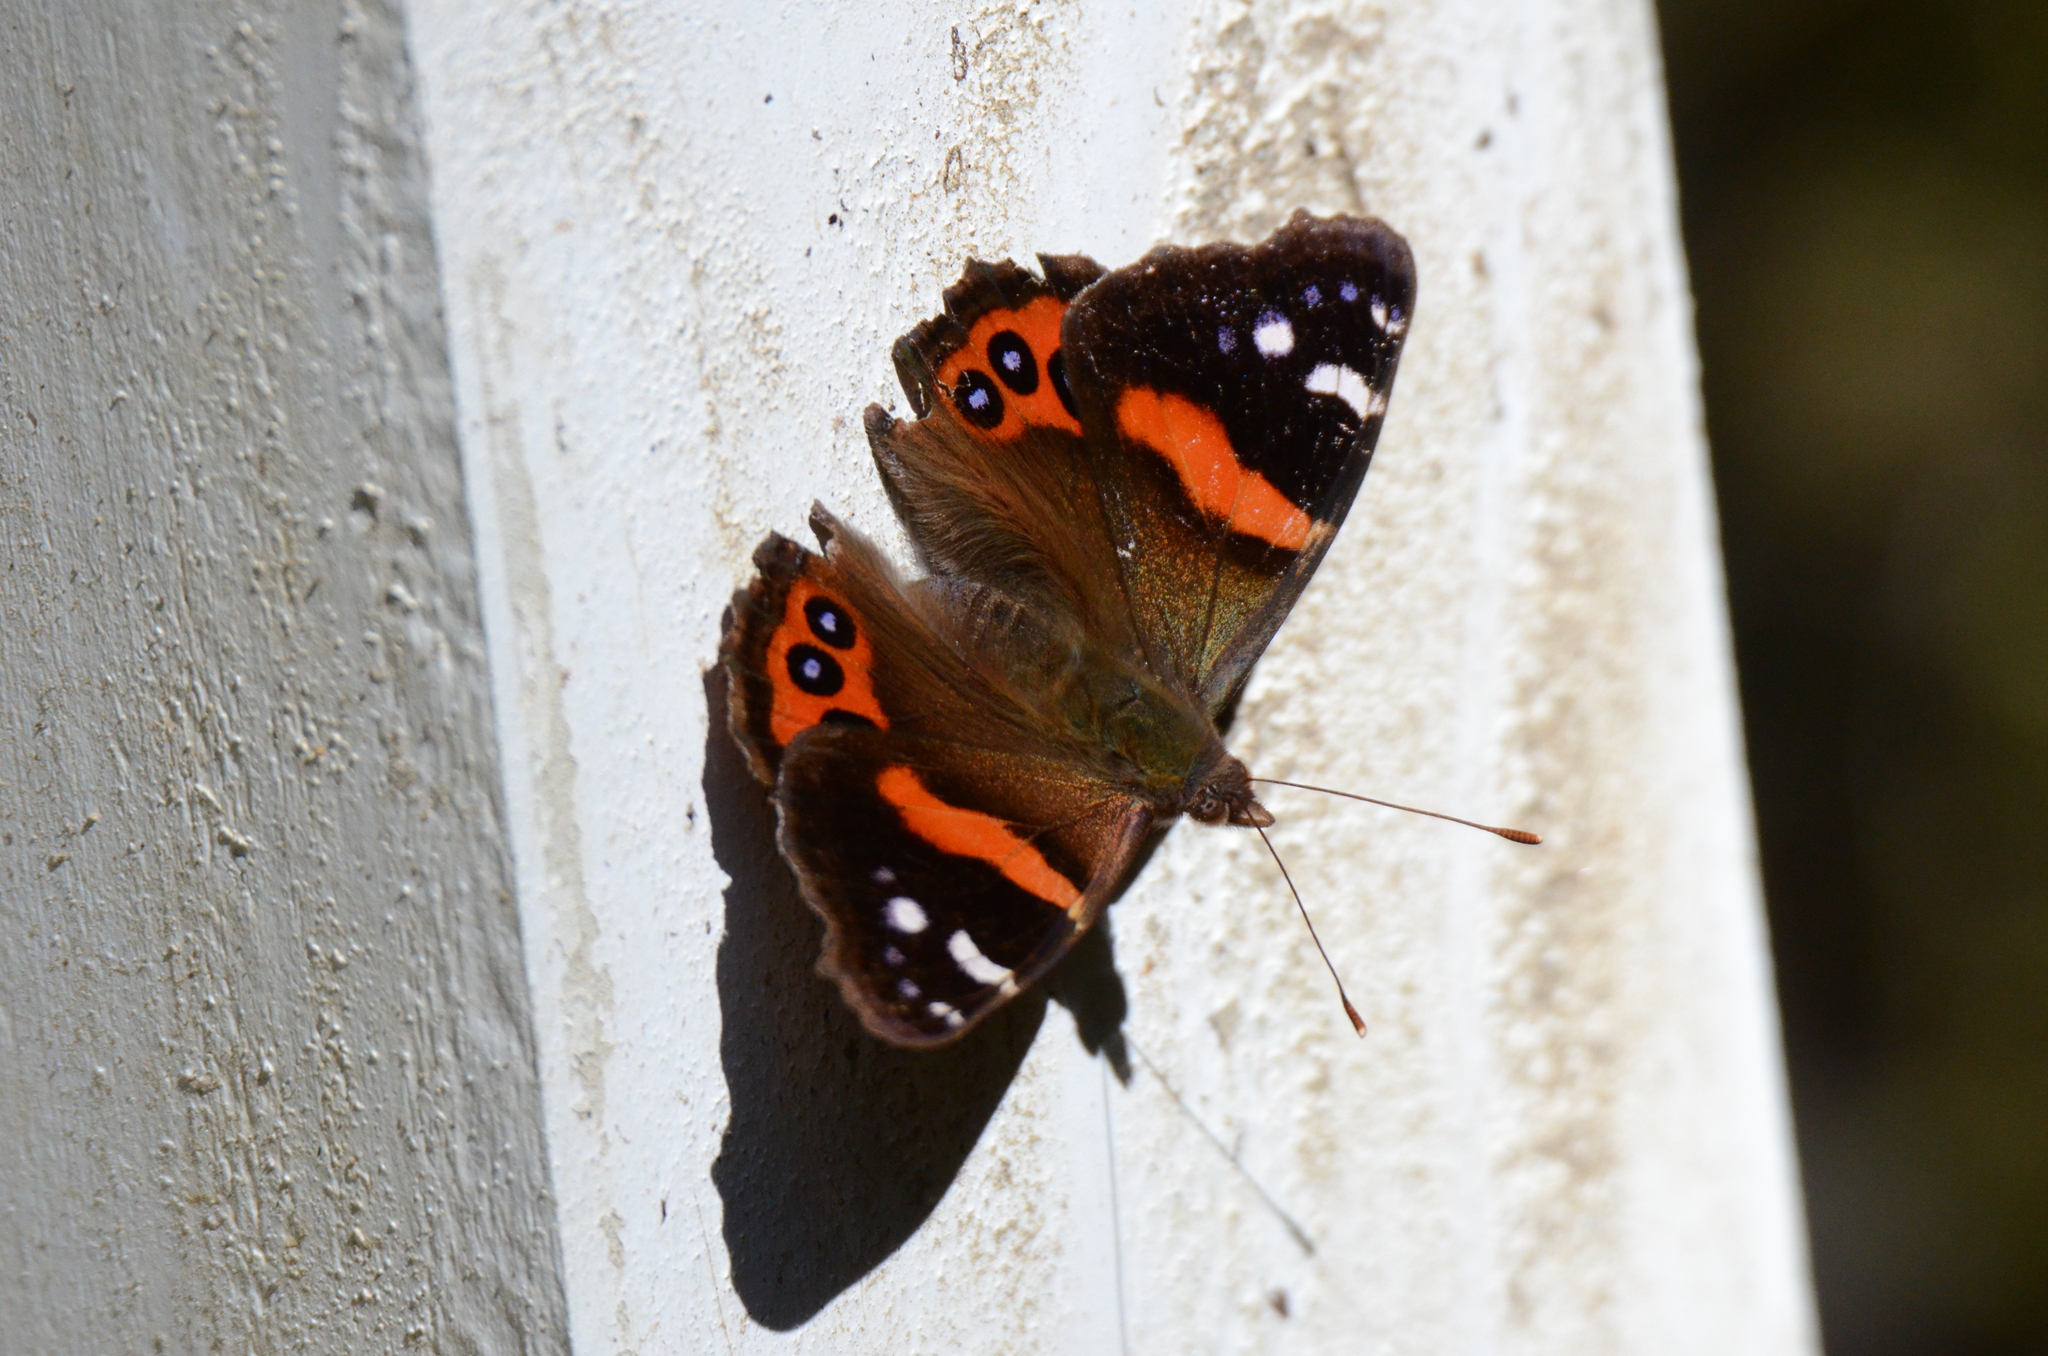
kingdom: Animalia
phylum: Arthropoda
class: Insecta
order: Lepidoptera
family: Nymphalidae
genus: Vanessa
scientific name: Vanessa gonerilla
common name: New zealand red admiral
